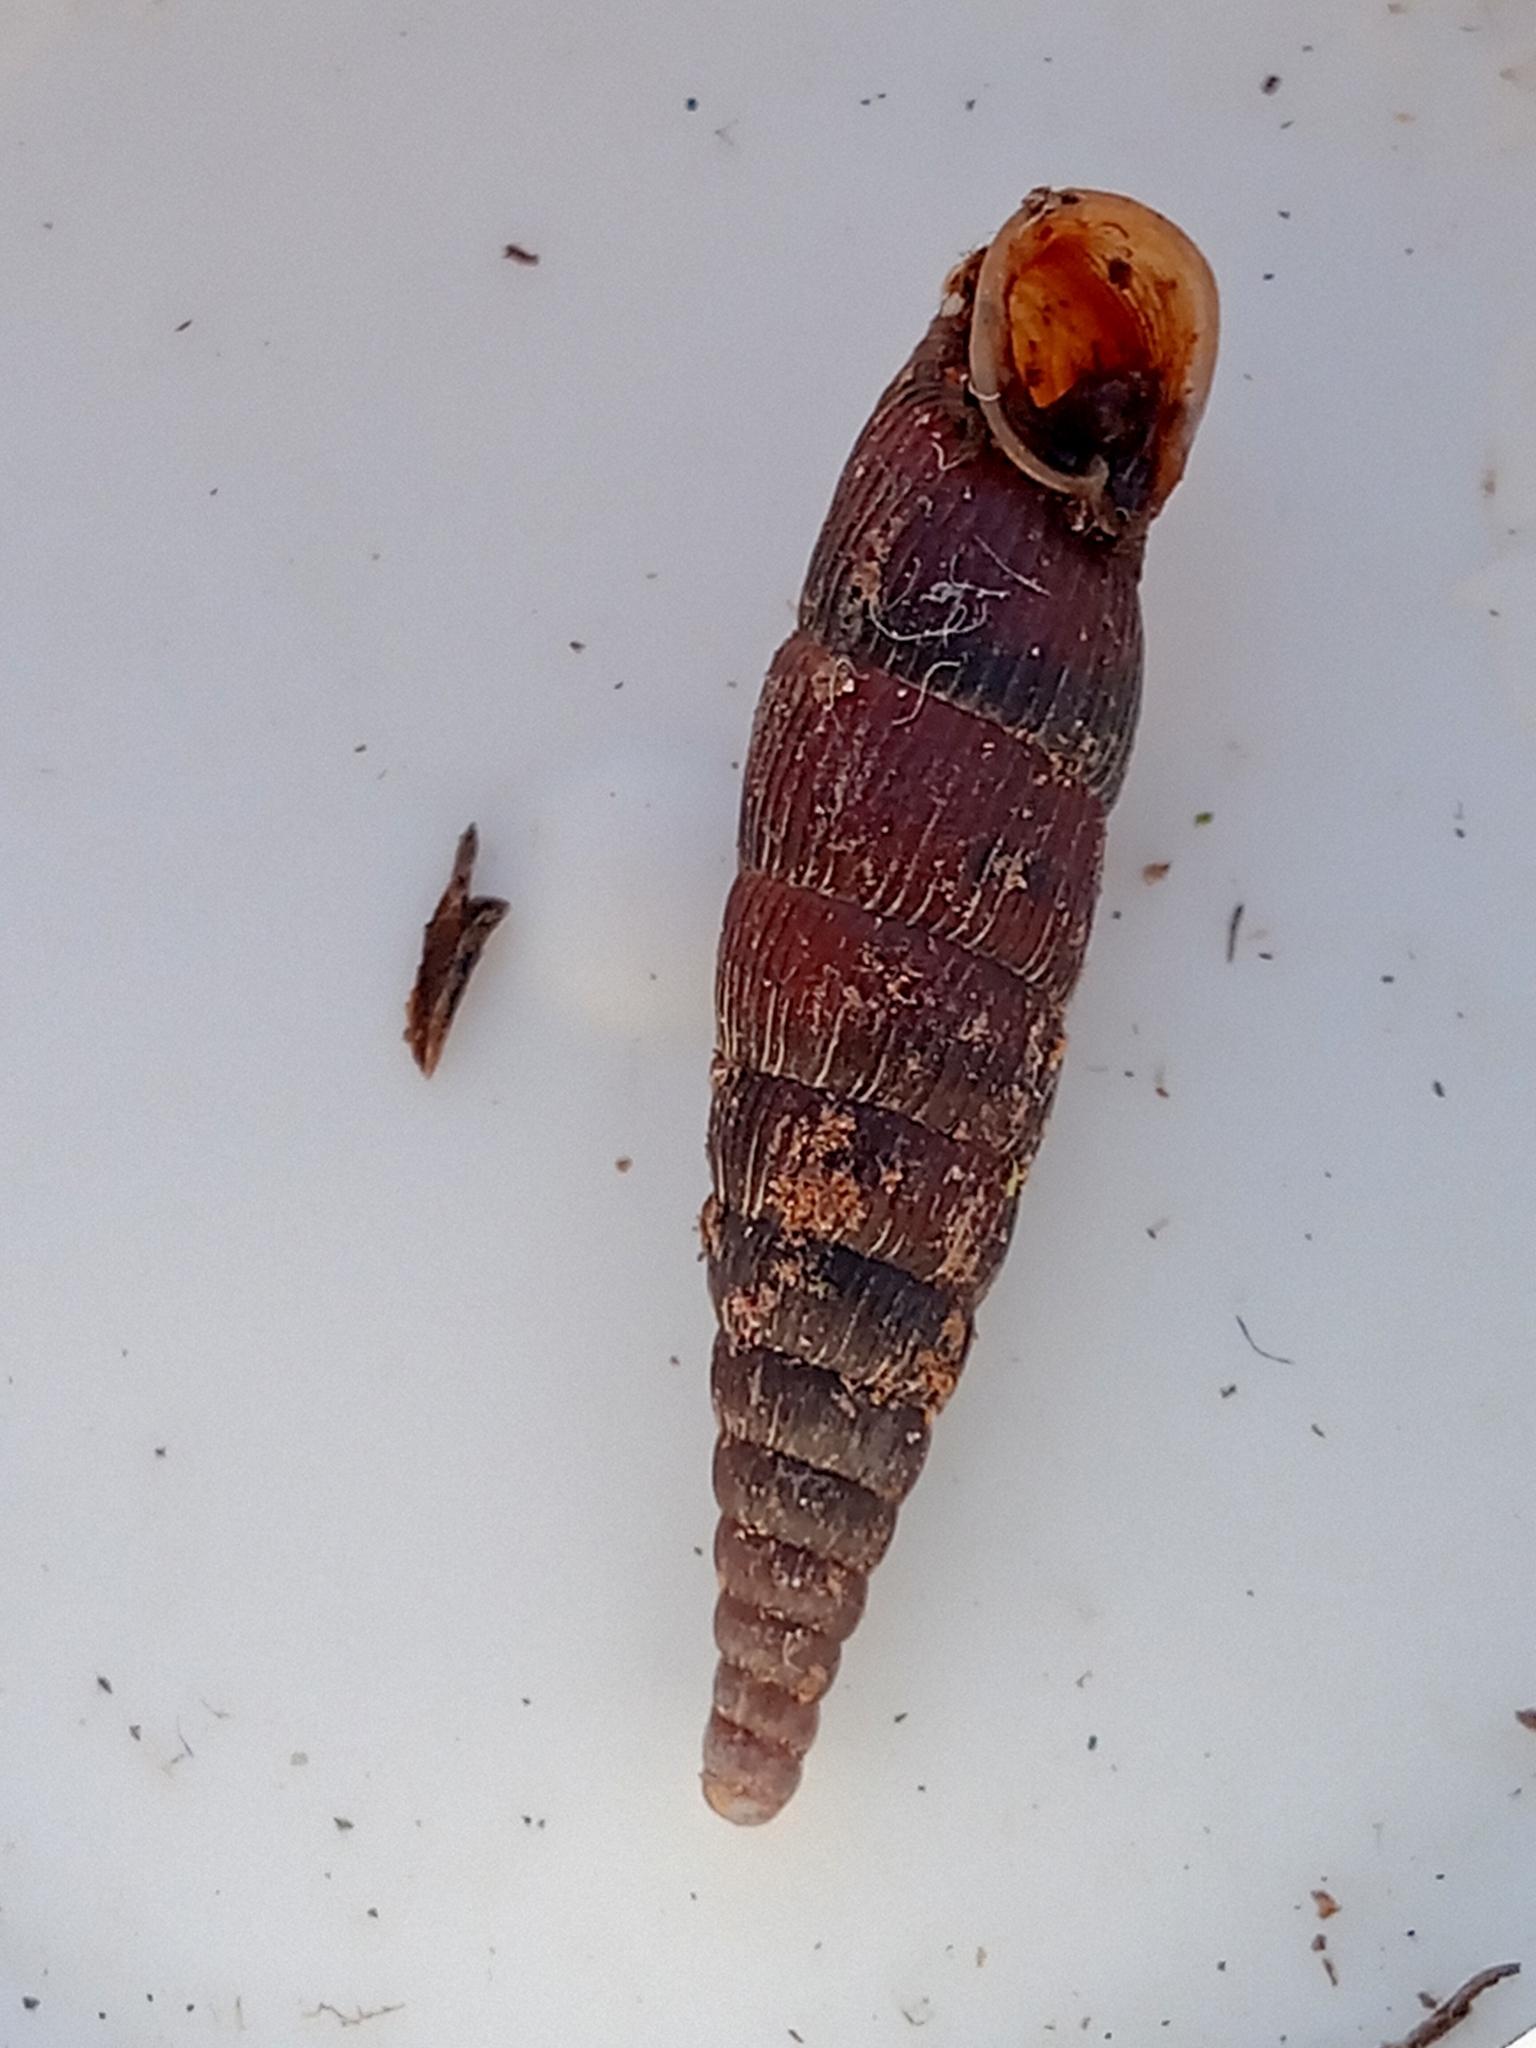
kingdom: Animalia
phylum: Mollusca
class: Gastropoda
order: Stylommatophora
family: Clausiliidae
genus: Macrogastra
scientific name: Macrogastra ventricosa
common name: Ventricose door snail
